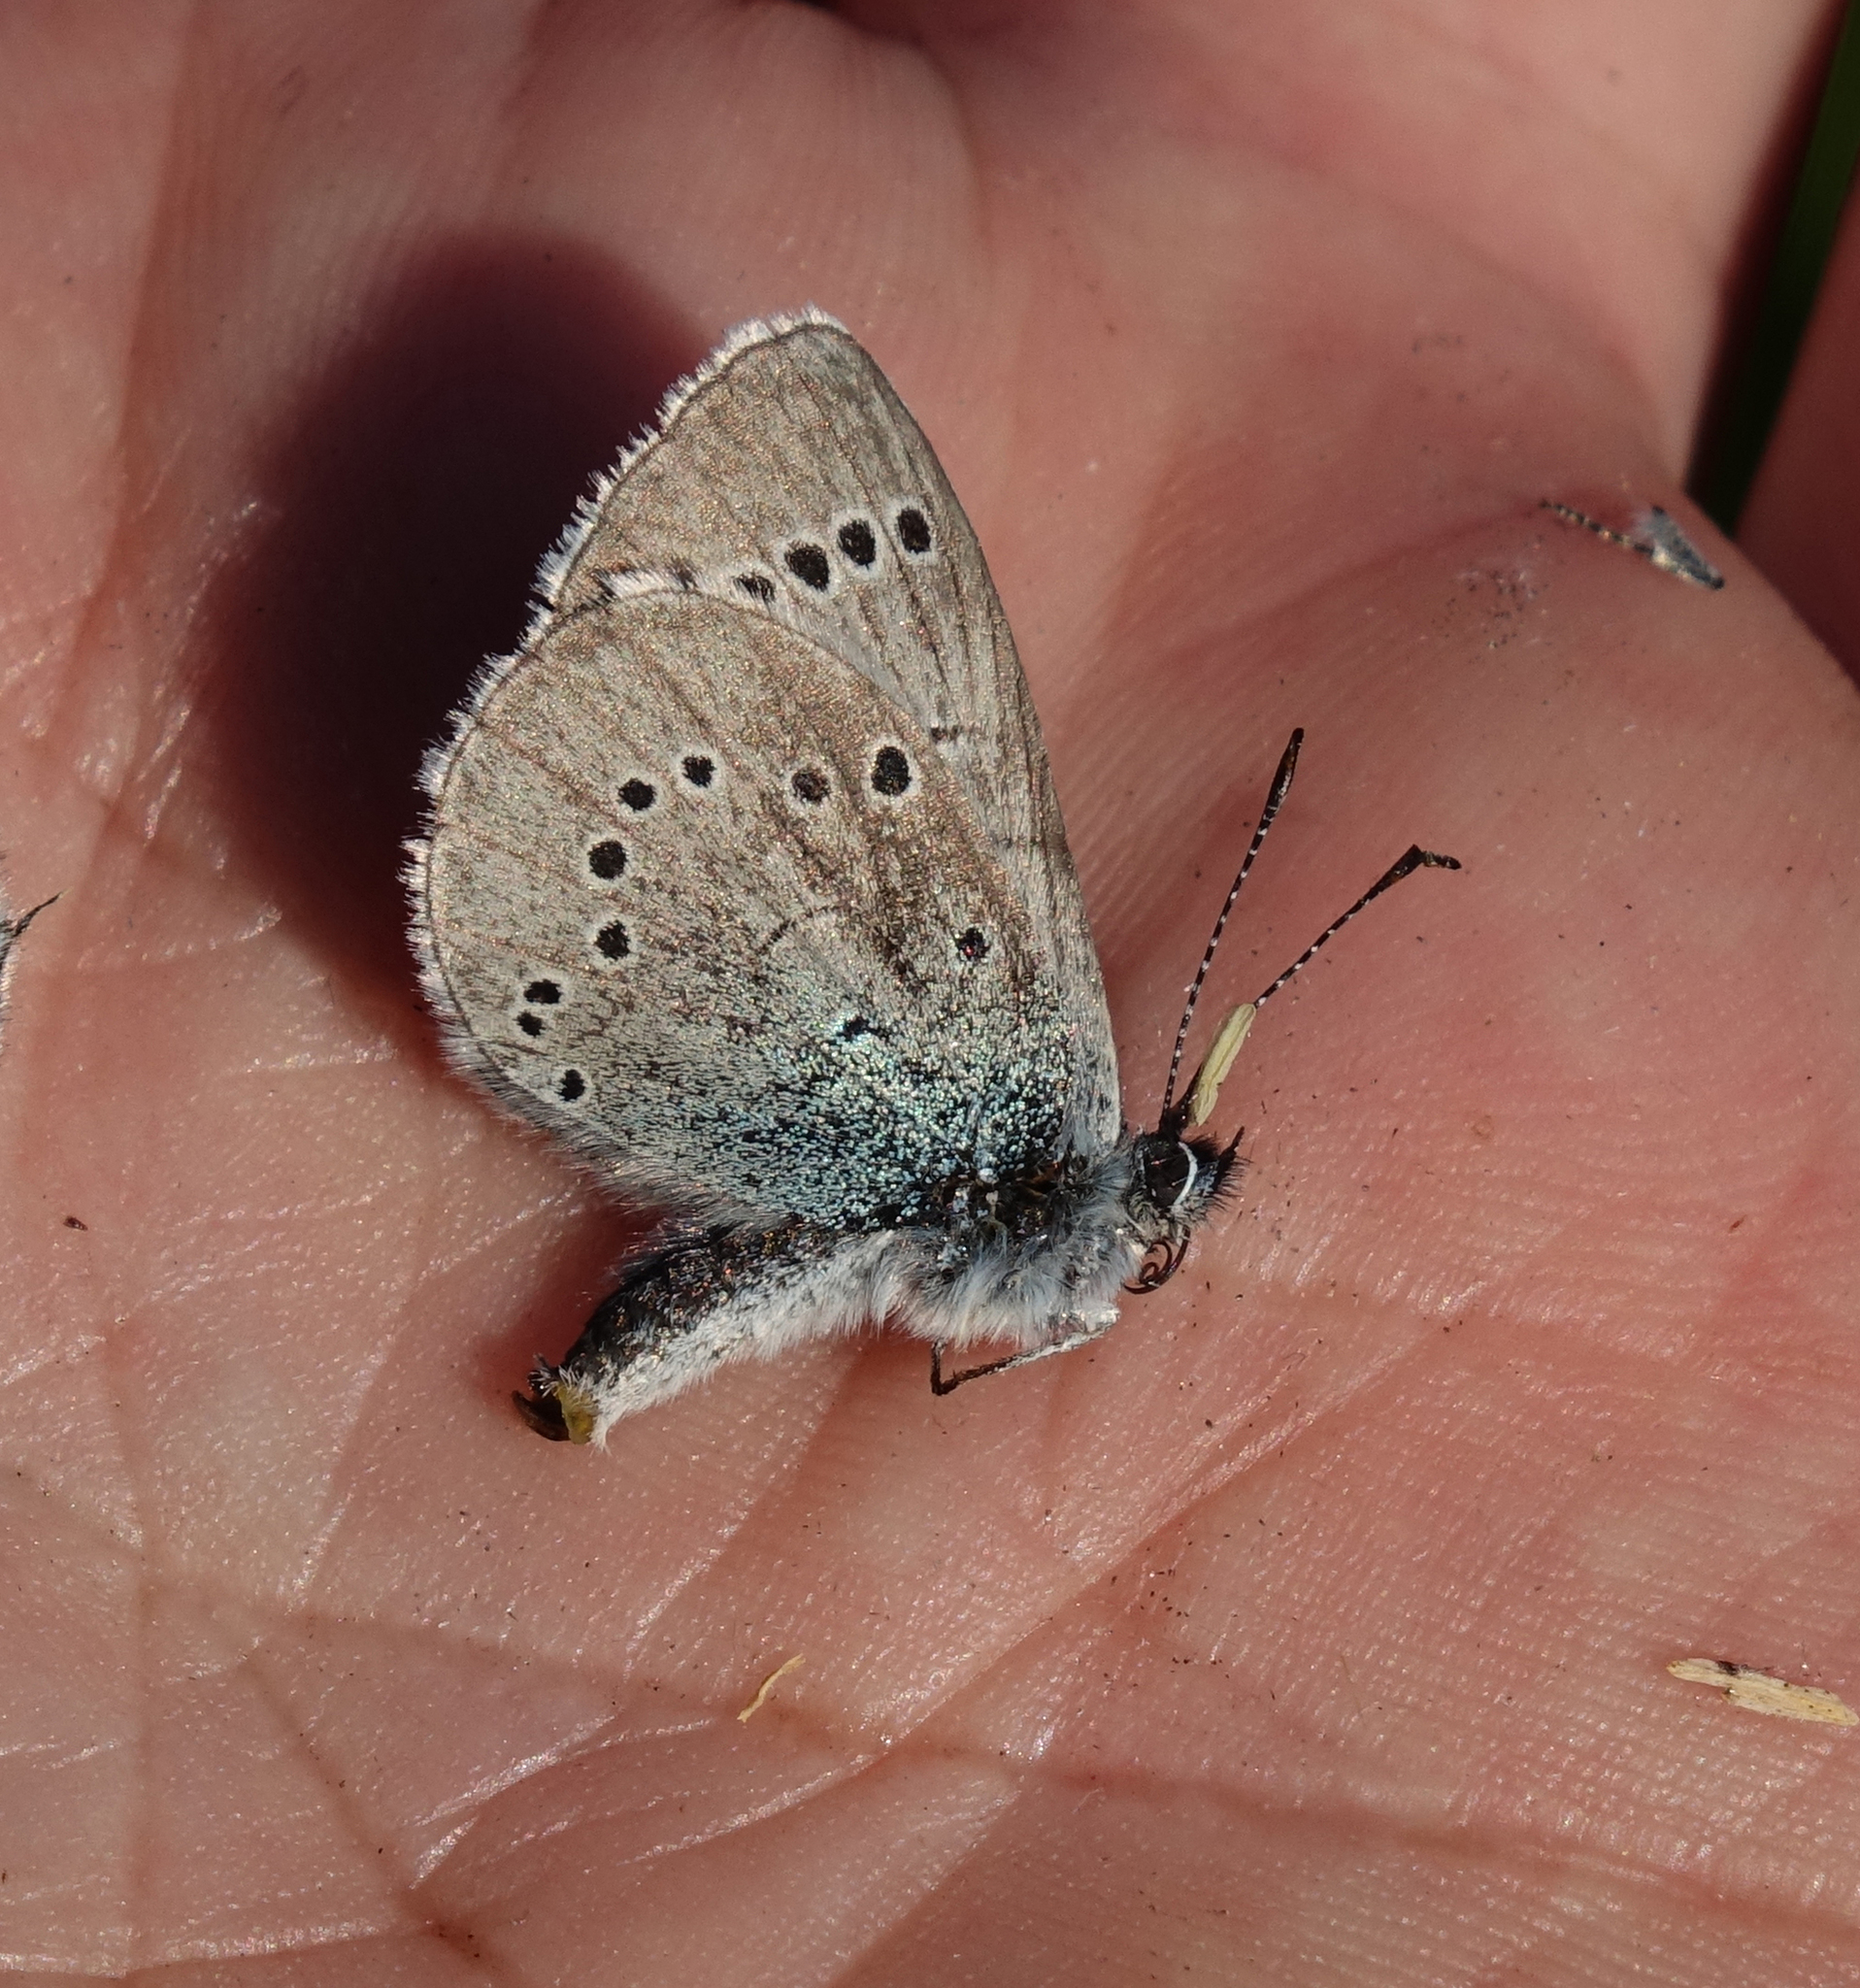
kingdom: Animalia
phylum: Arthropoda
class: Insecta
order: Lepidoptera
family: Lycaenidae
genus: Glaucopsyche
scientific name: Glaucopsyche lycormas
